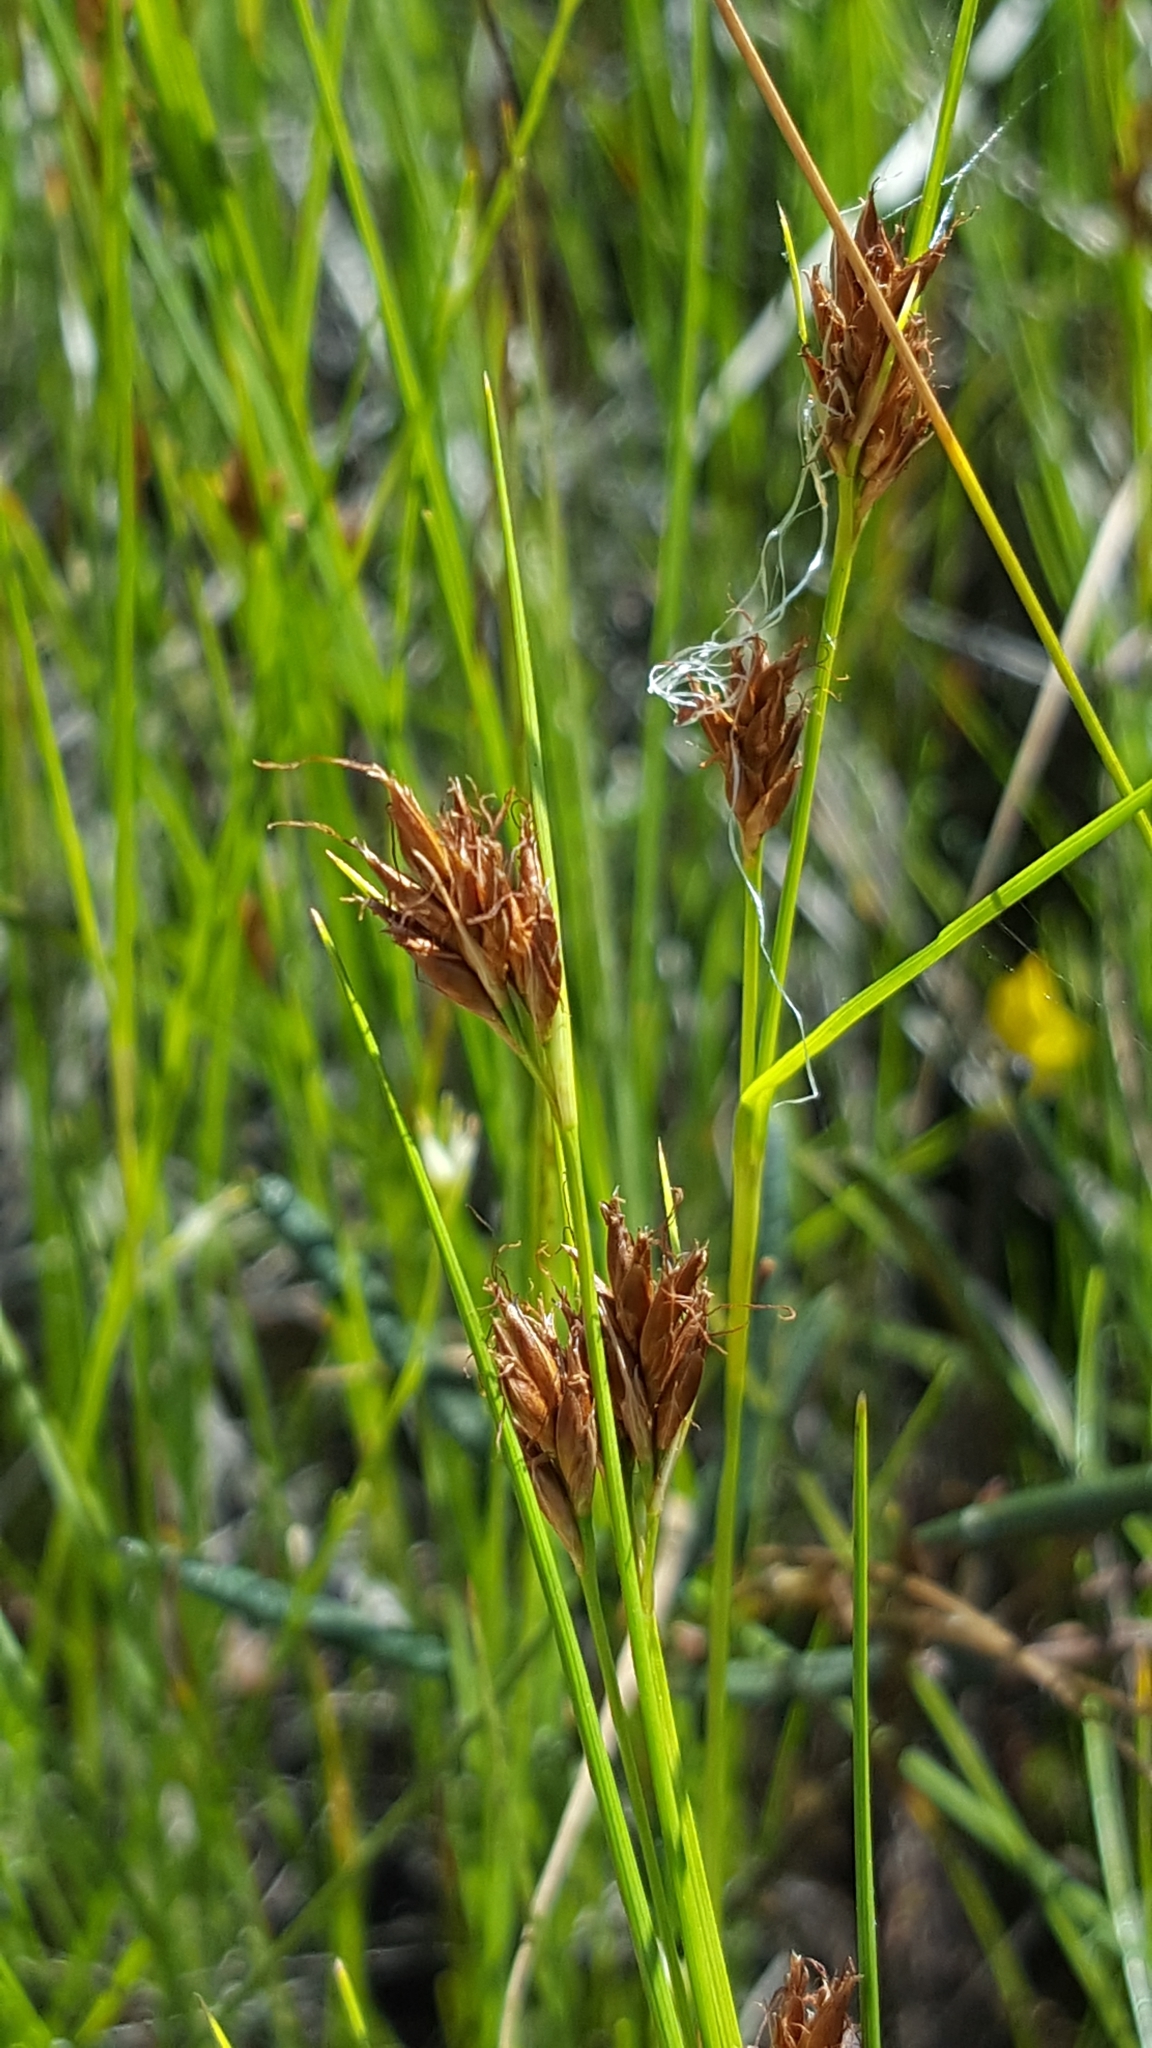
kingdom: Plantae
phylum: Tracheophyta
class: Liliopsida
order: Poales
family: Cyperaceae
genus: Rhynchospora
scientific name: Rhynchospora fusca
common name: Brown beak-sedge
